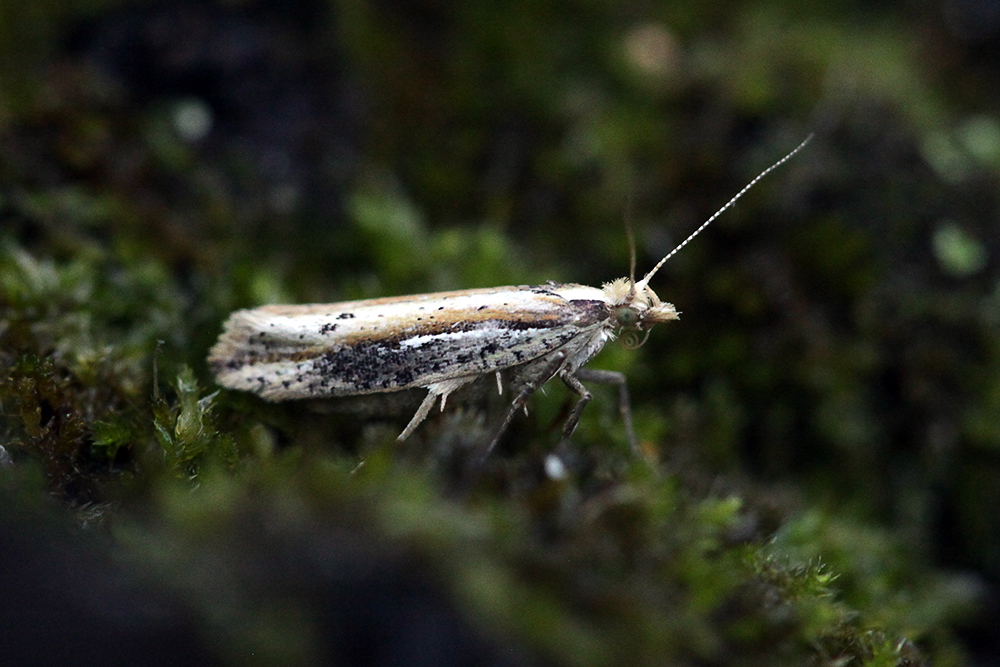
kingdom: Animalia
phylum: Arthropoda
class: Insecta
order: Lepidoptera
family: Ypsolophidae
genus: Ypsolopha
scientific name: Ypsolopha parenthesella
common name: White-shouldered smudge
